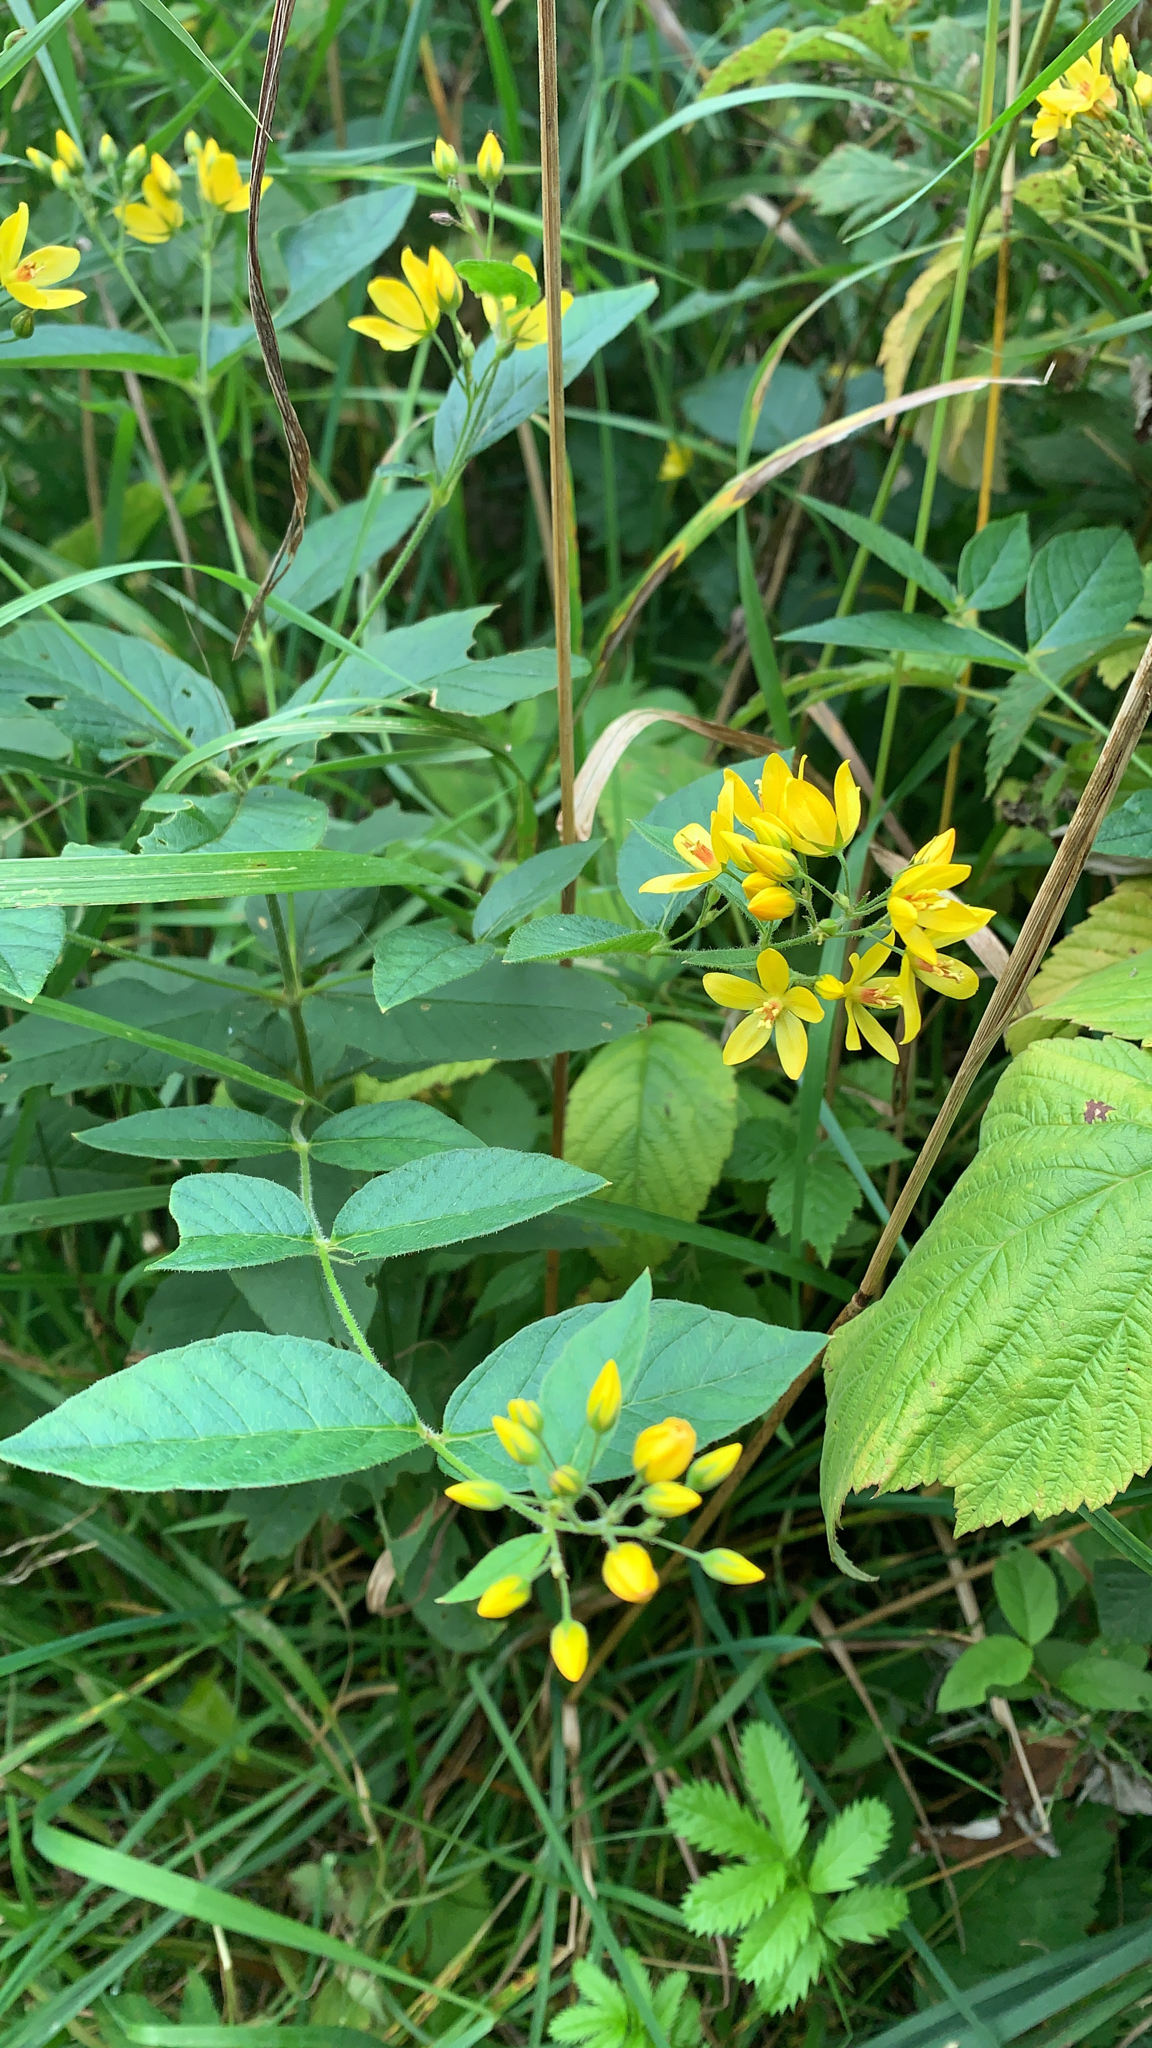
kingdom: Plantae
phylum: Tracheophyta
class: Magnoliopsida
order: Ericales
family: Primulaceae
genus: Lysimachia
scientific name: Lysimachia vulgaris
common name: Yellow loosestrife
